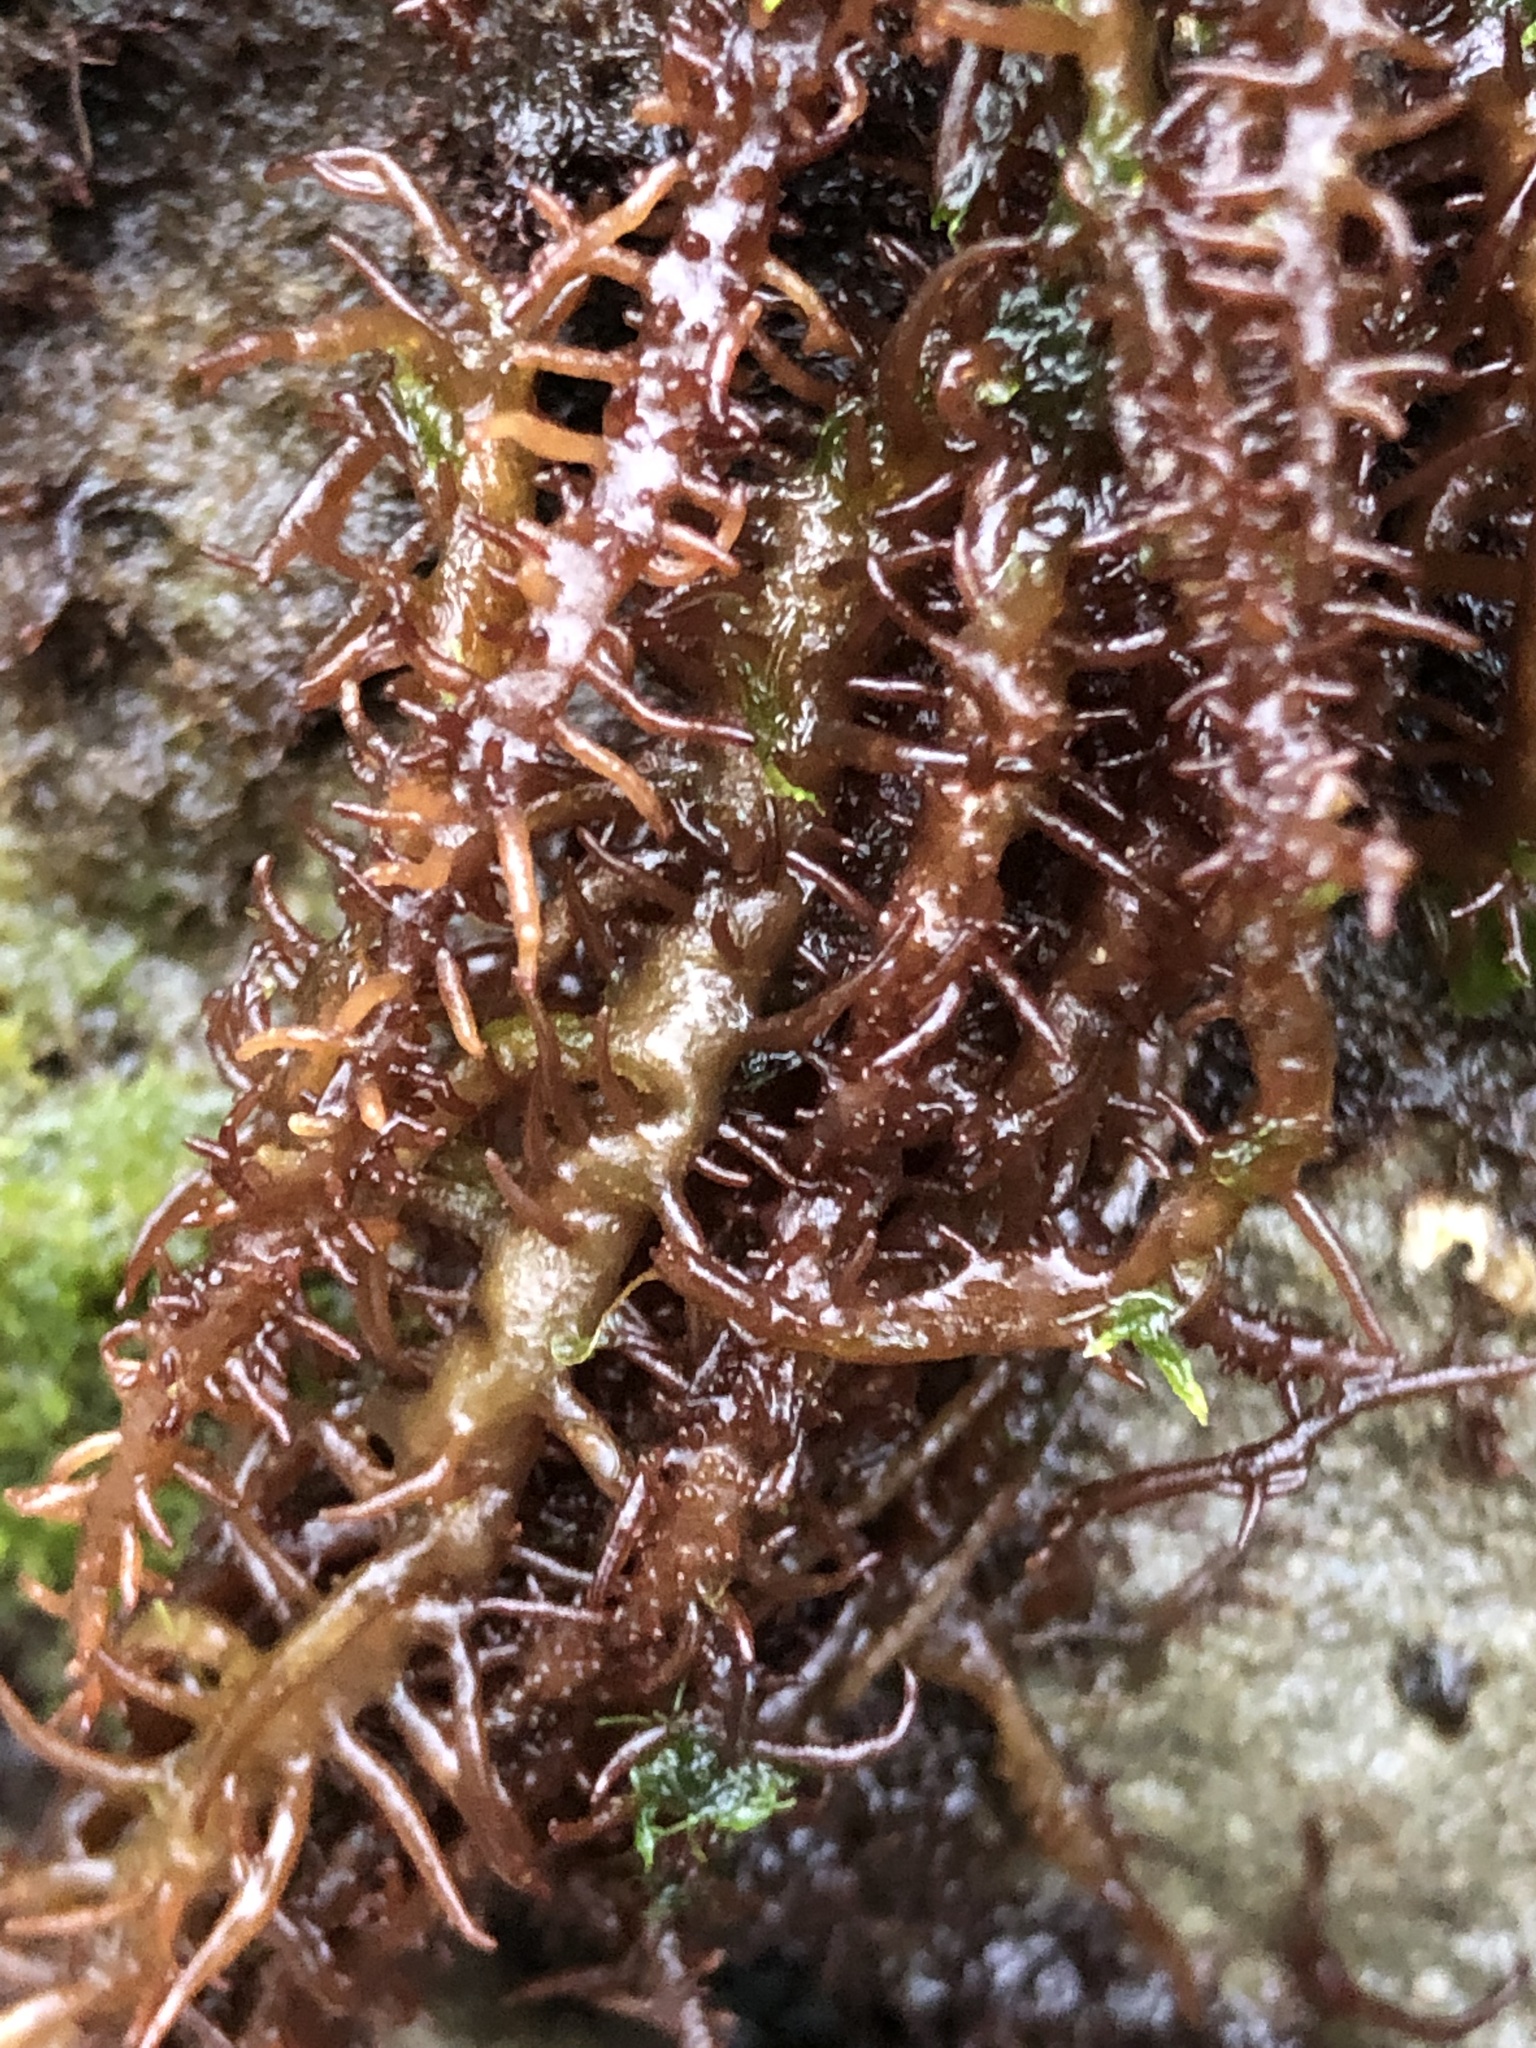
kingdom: Plantae
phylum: Rhodophyta
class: Florideophyceae
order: Nemaliales
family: Liagoraceae
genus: Cumagloia
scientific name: Cumagloia andersonii
